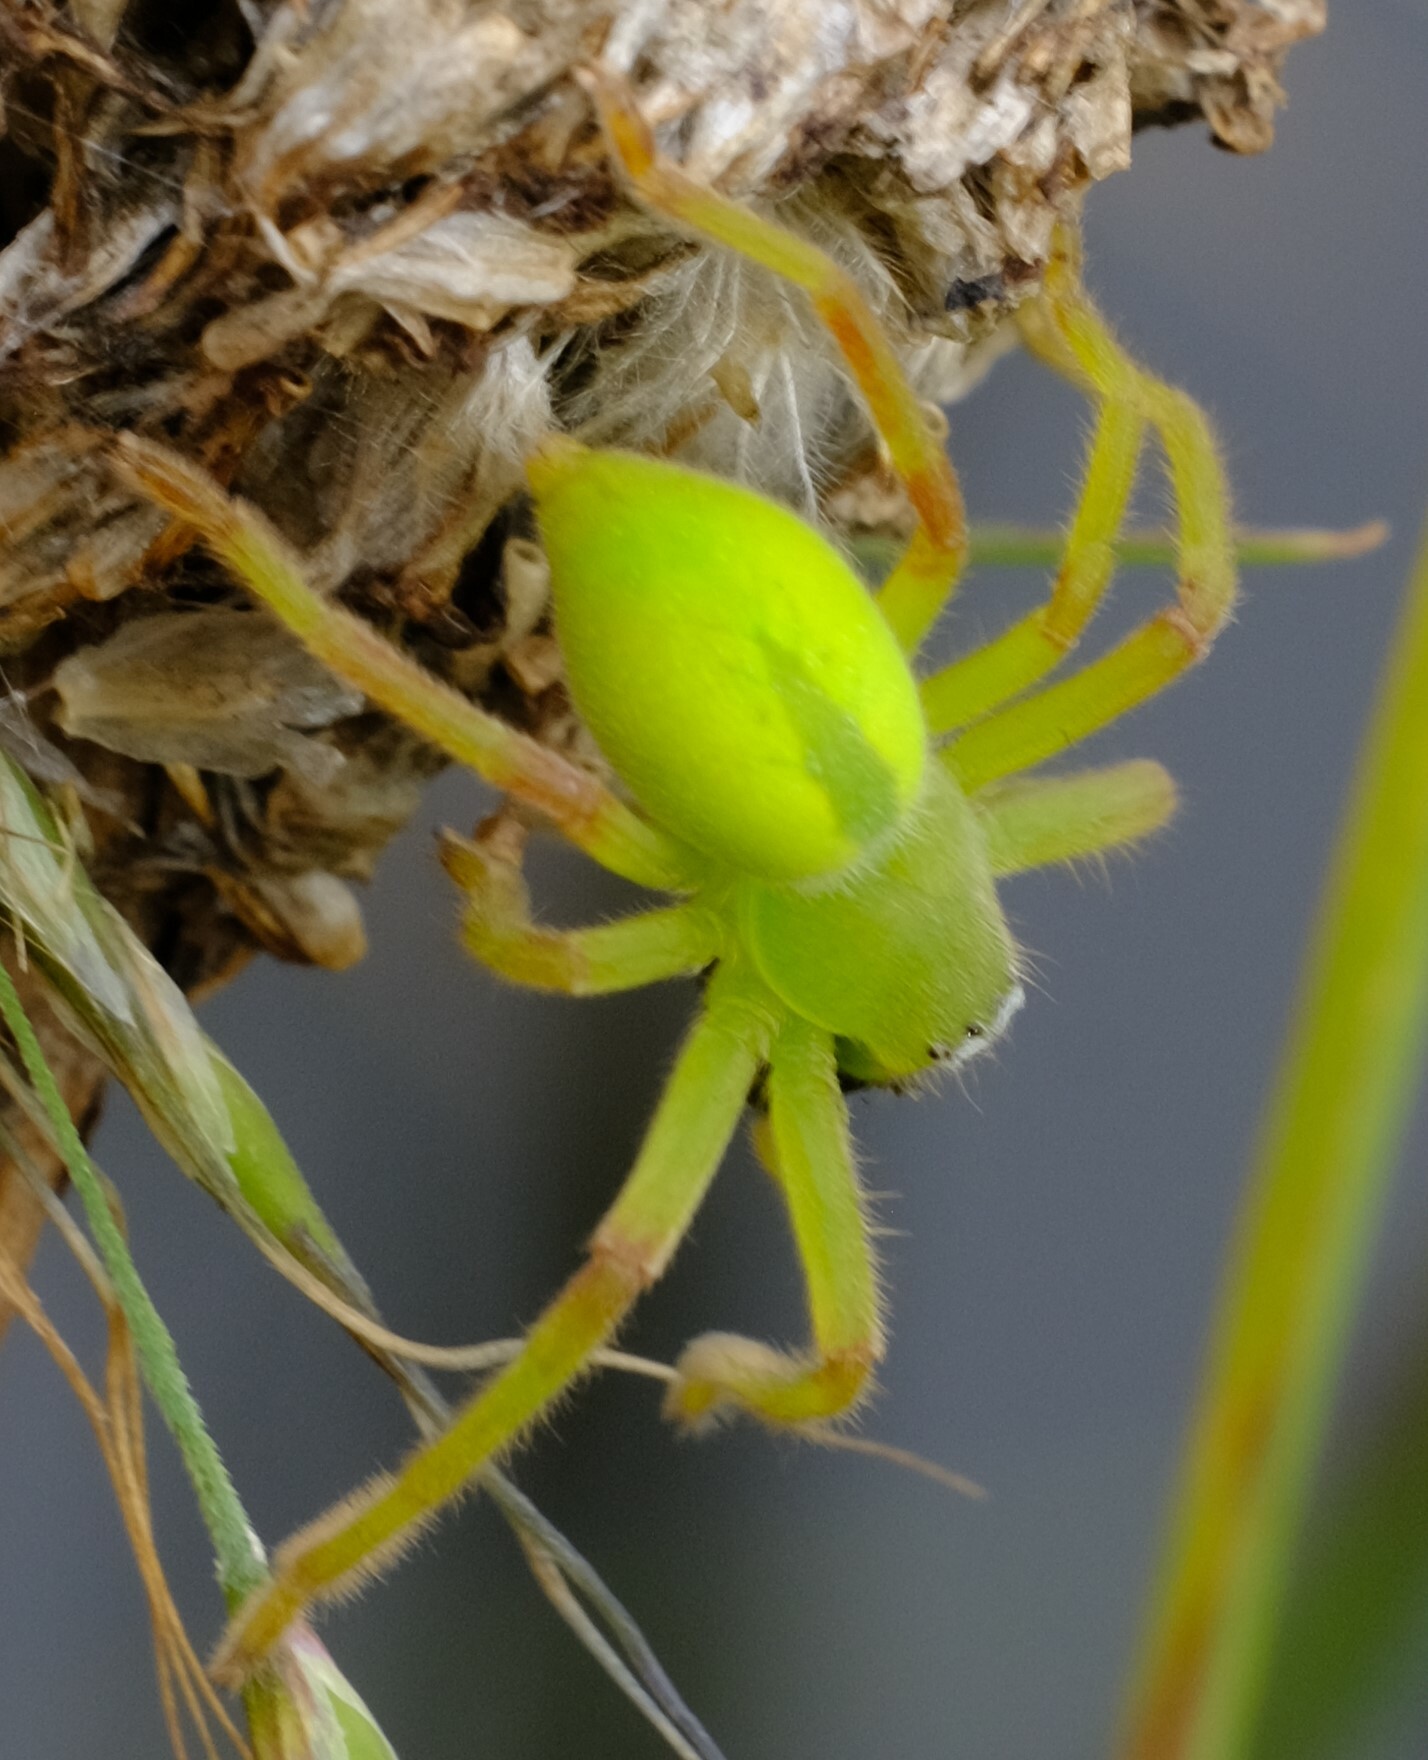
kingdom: Animalia
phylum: Arthropoda
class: Arachnida
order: Araneae
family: Sparassidae
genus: Neosparassus
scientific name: Neosparassus patellatus
